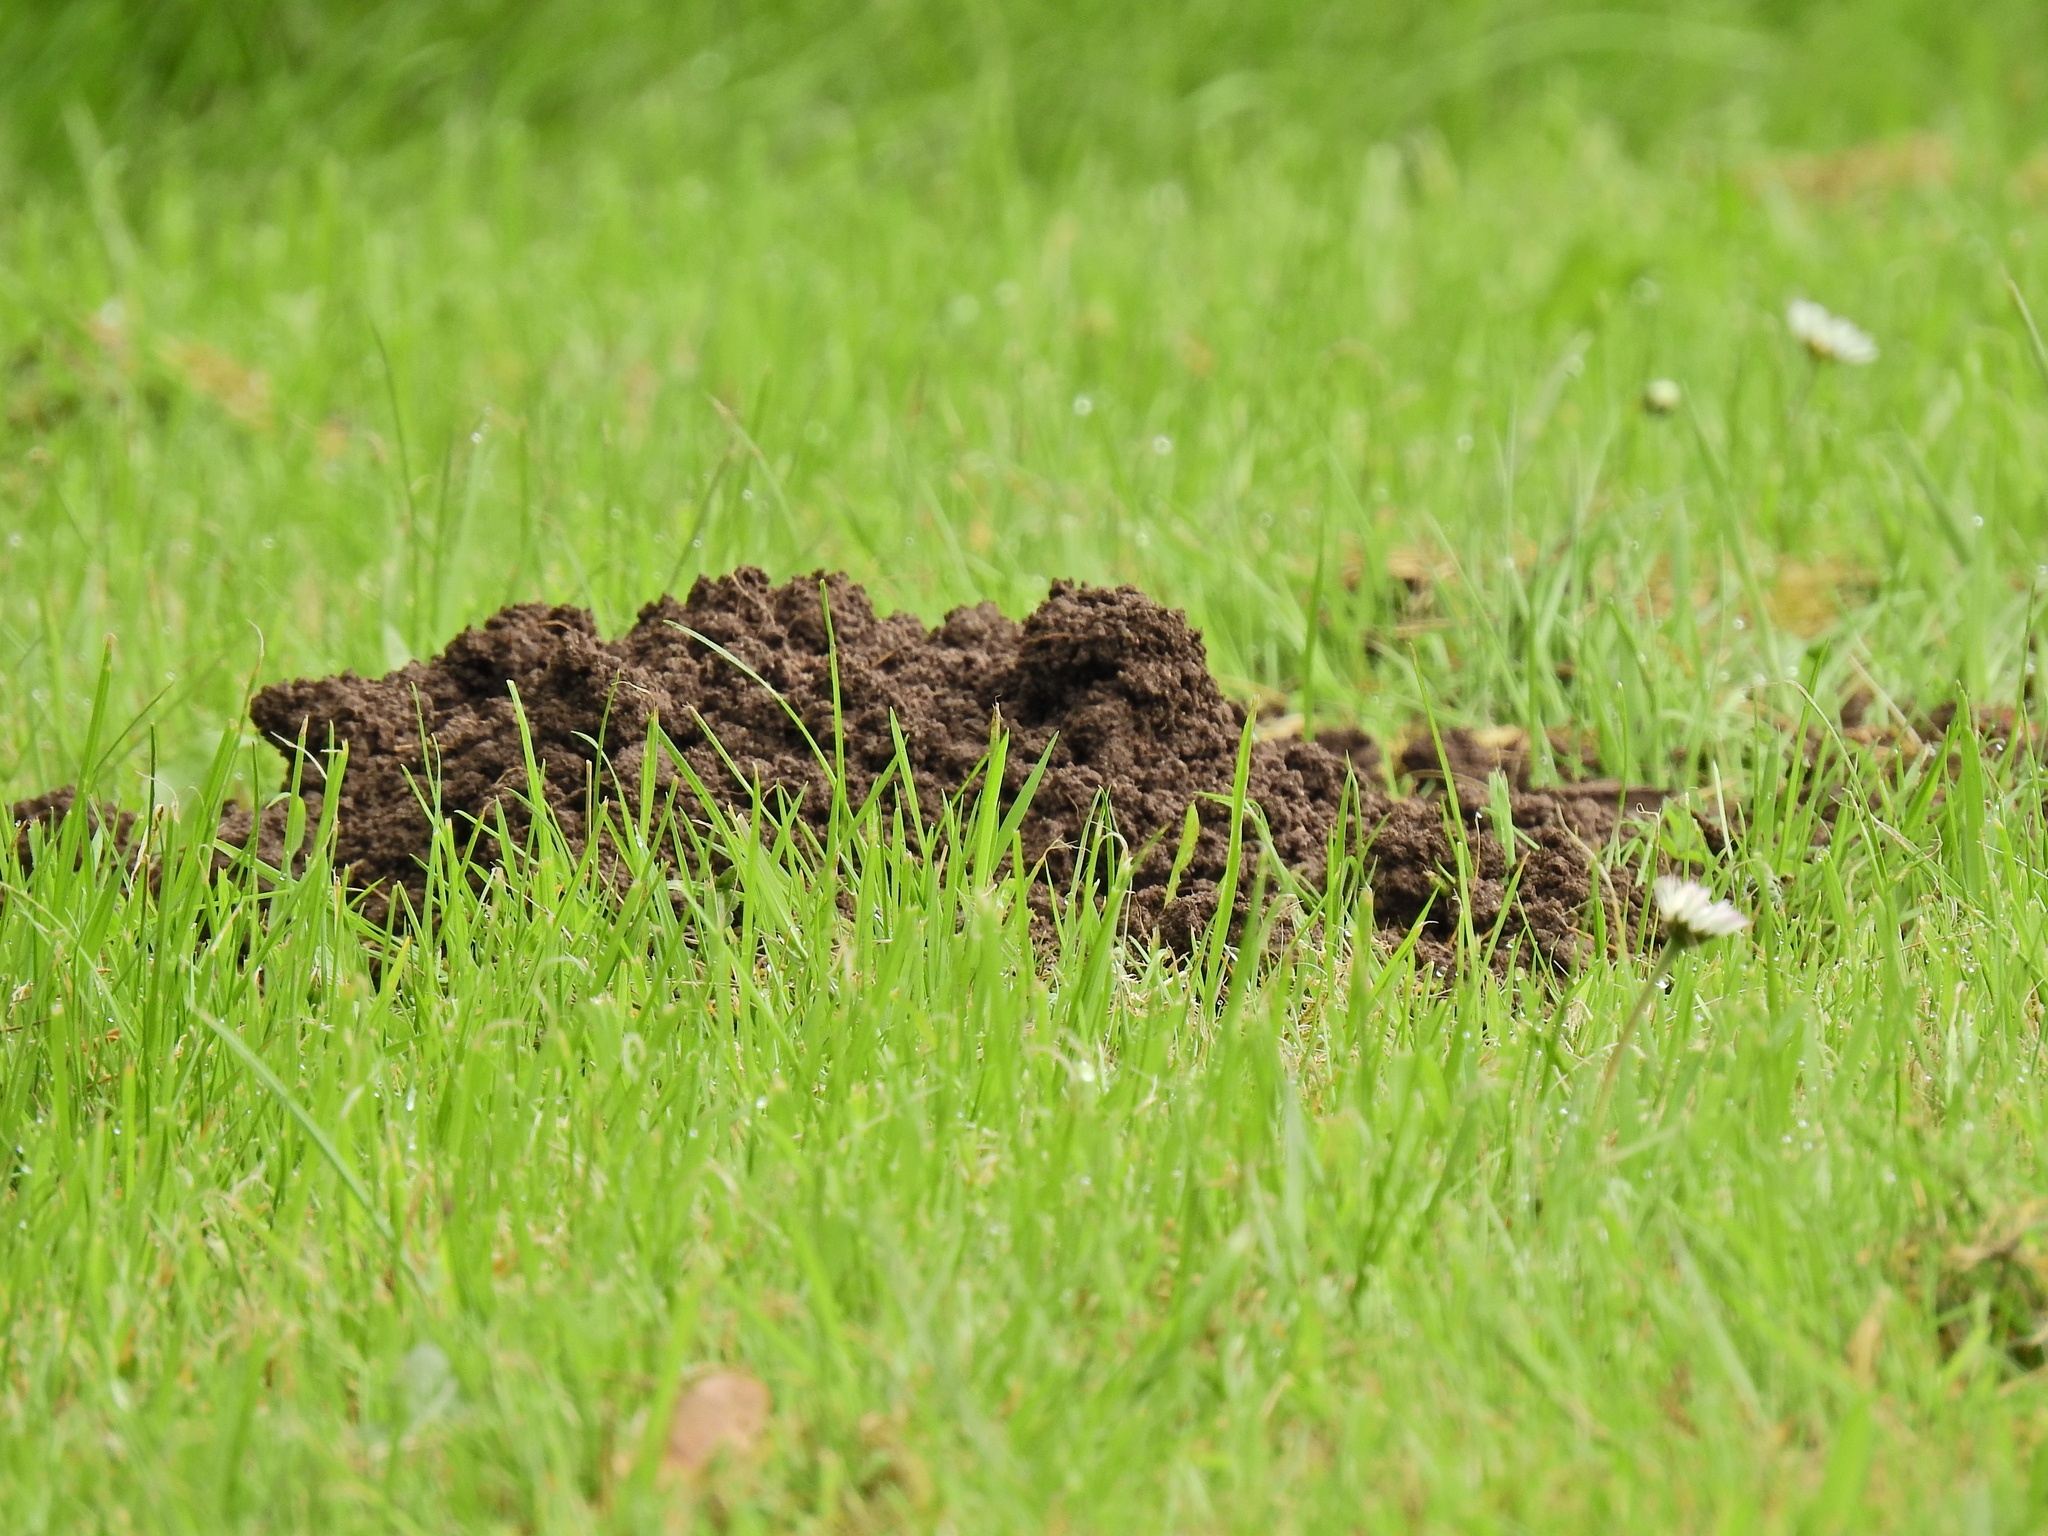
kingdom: Animalia
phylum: Chordata
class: Mammalia
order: Soricomorpha
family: Talpidae
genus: Talpa
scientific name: Talpa europaea
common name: European mole
